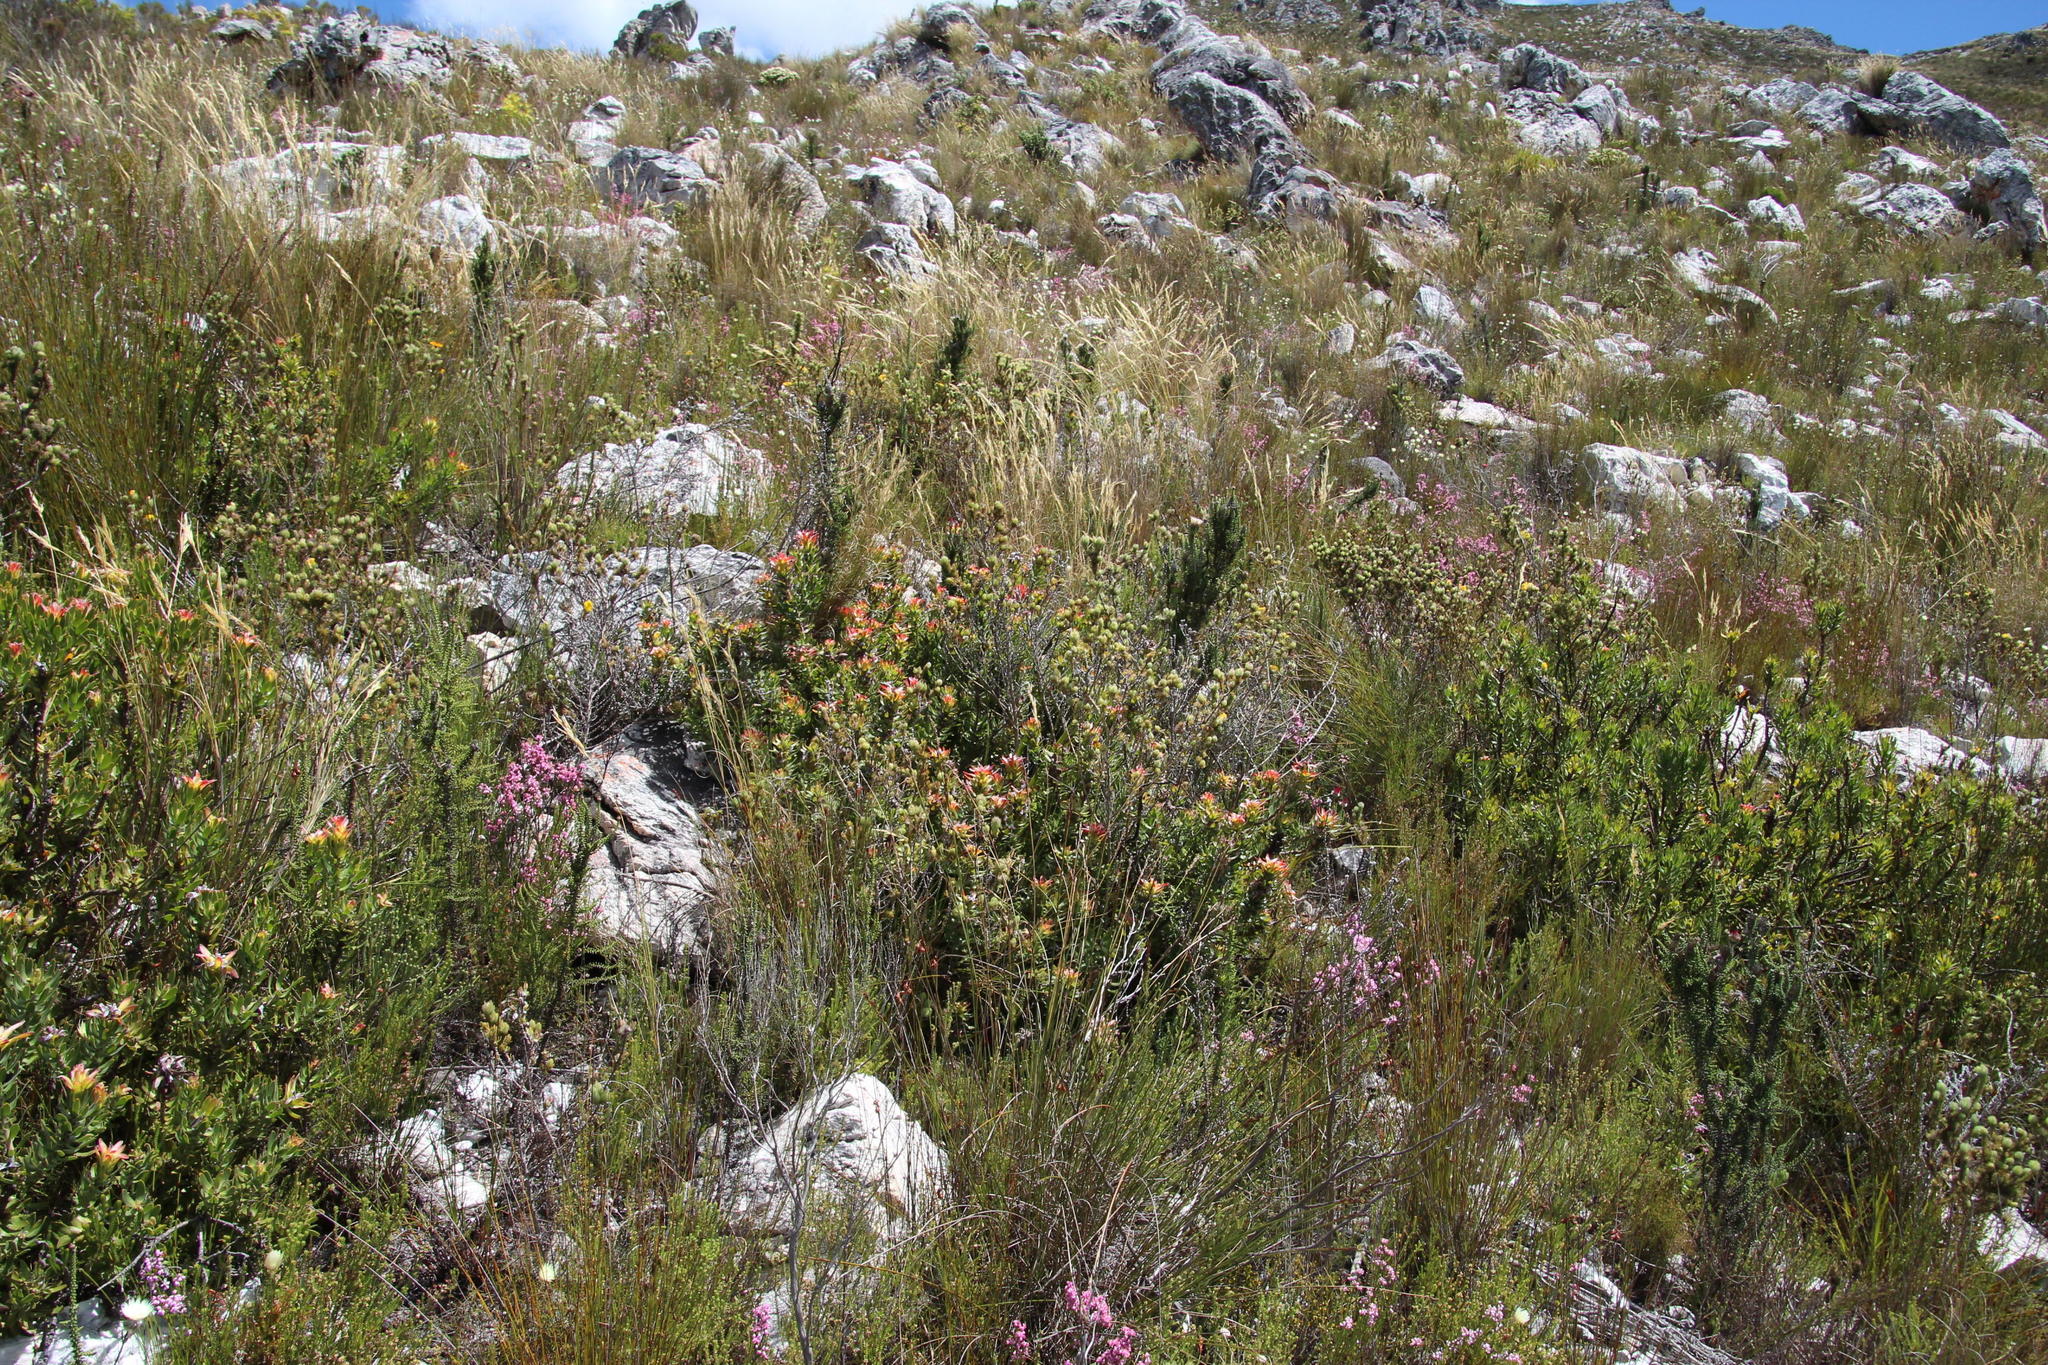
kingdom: Plantae
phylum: Tracheophyta
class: Magnoliopsida
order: Proteales
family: Proteaceae
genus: Mimetes
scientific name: Mimetes cucullatus
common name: Common pagoda
